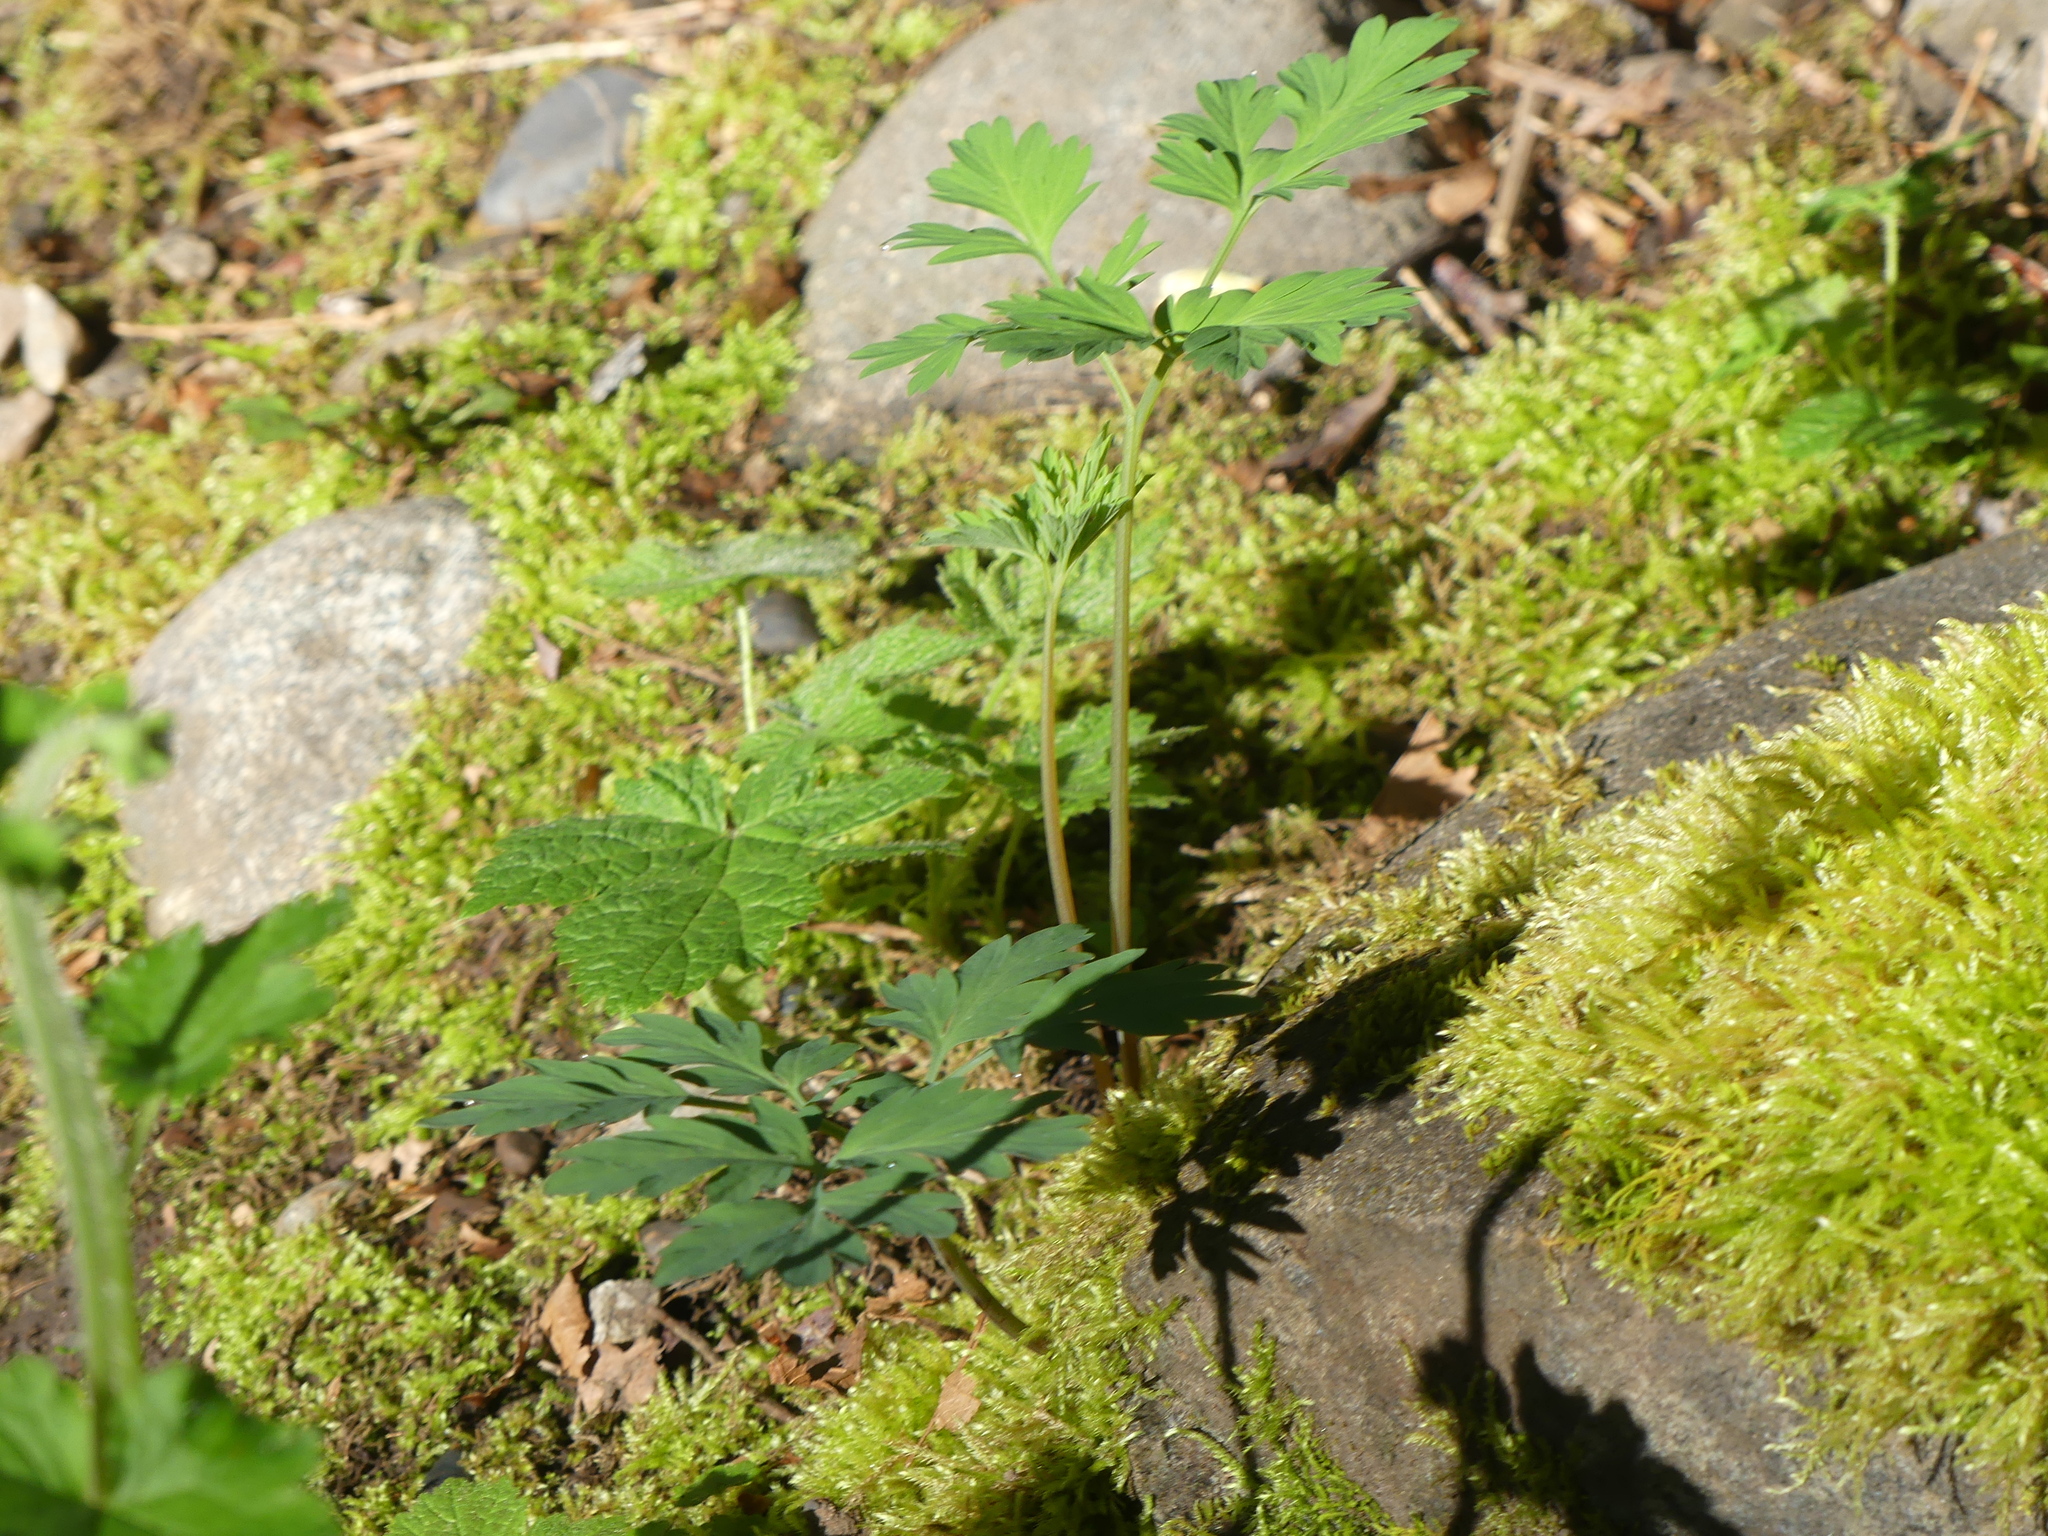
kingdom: Plantae
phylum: Tracheophyta
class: Magnoliopsida
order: Ranunculales
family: Papaveraceae
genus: Dicentra
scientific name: Dicentra formosa
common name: Bleeding-heart
